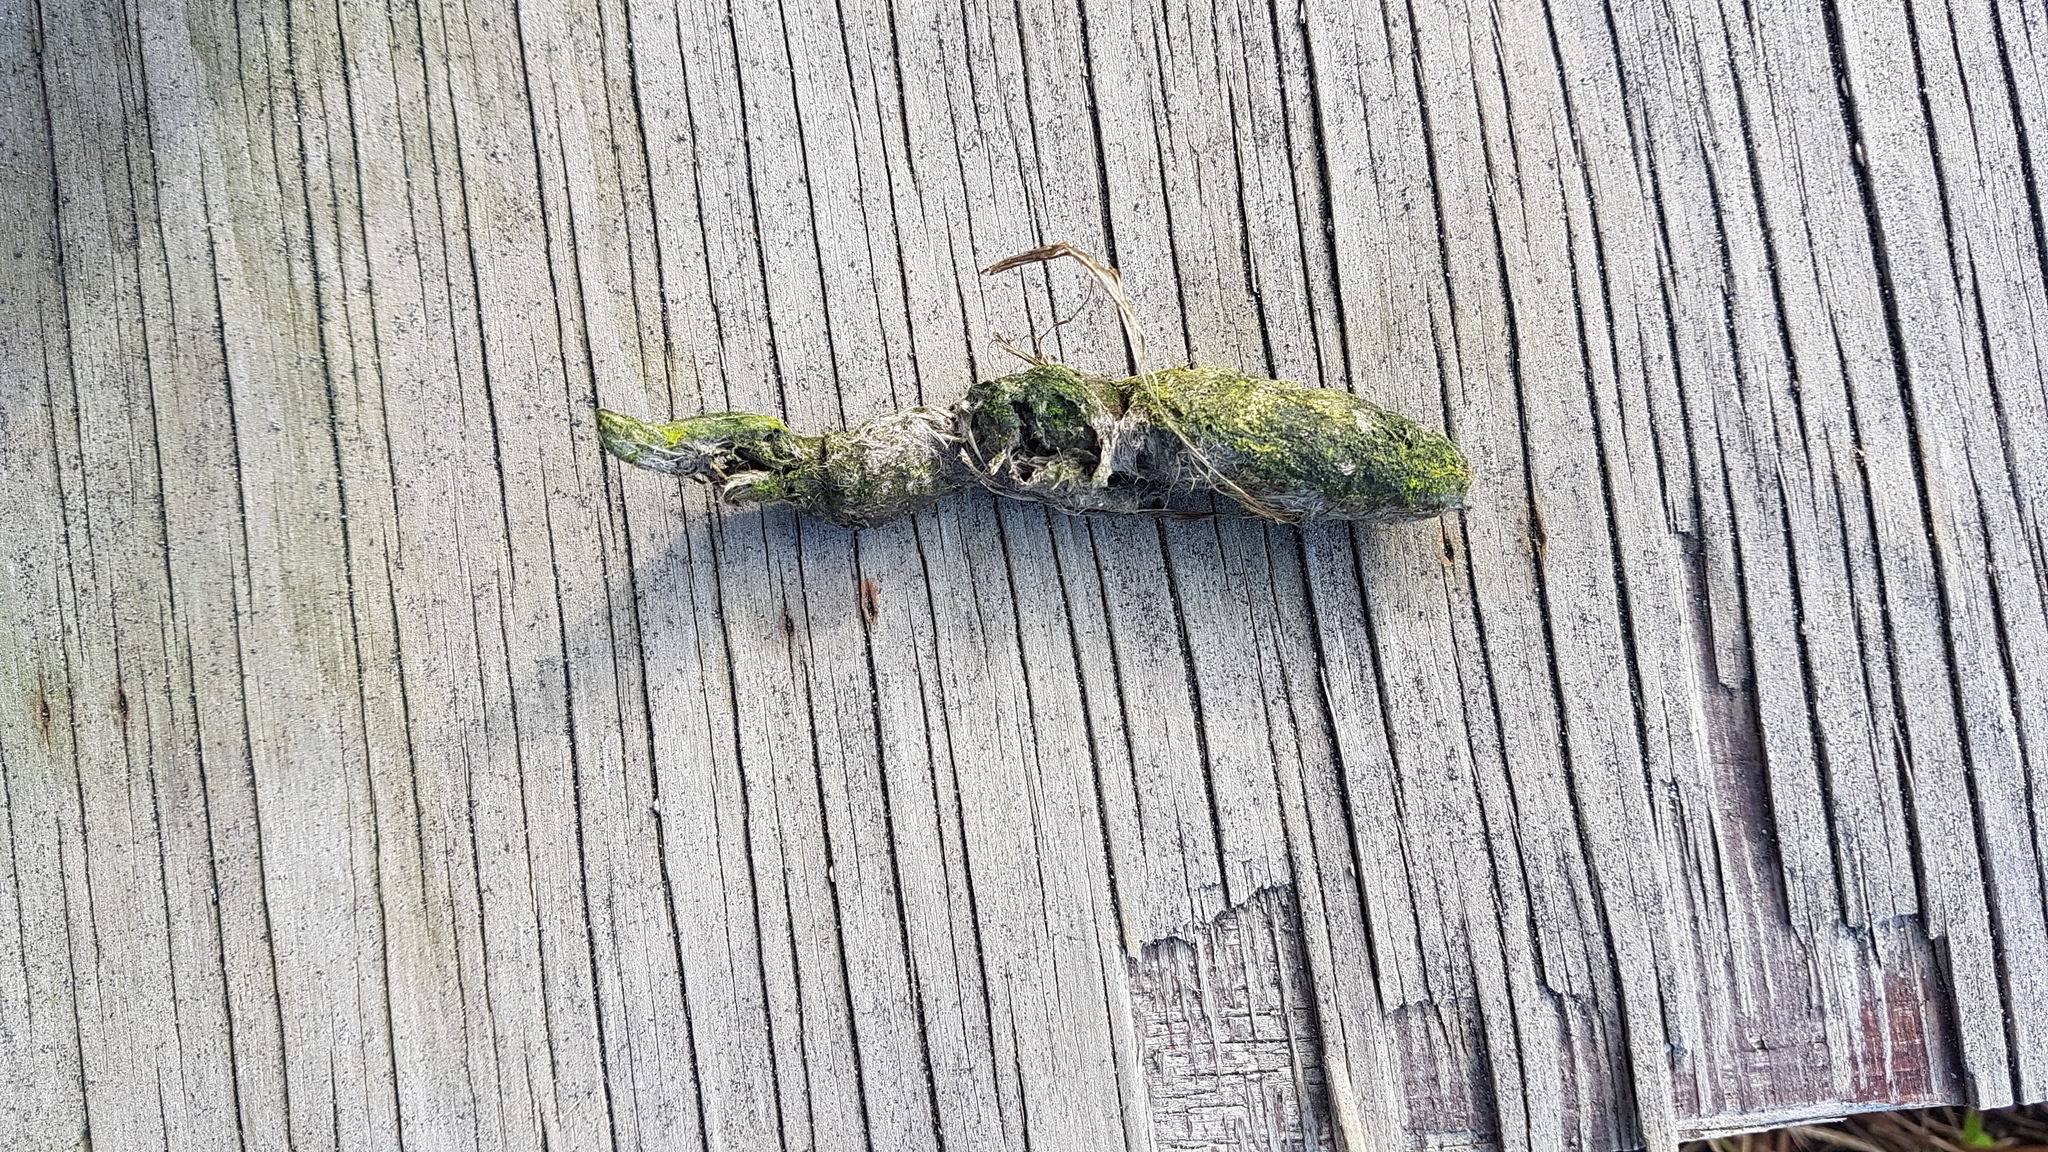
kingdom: Animalia
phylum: Chordata
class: Mammalia
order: Carnivora
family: Felidae
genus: Felis
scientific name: Felis catus
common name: Domestic cat
